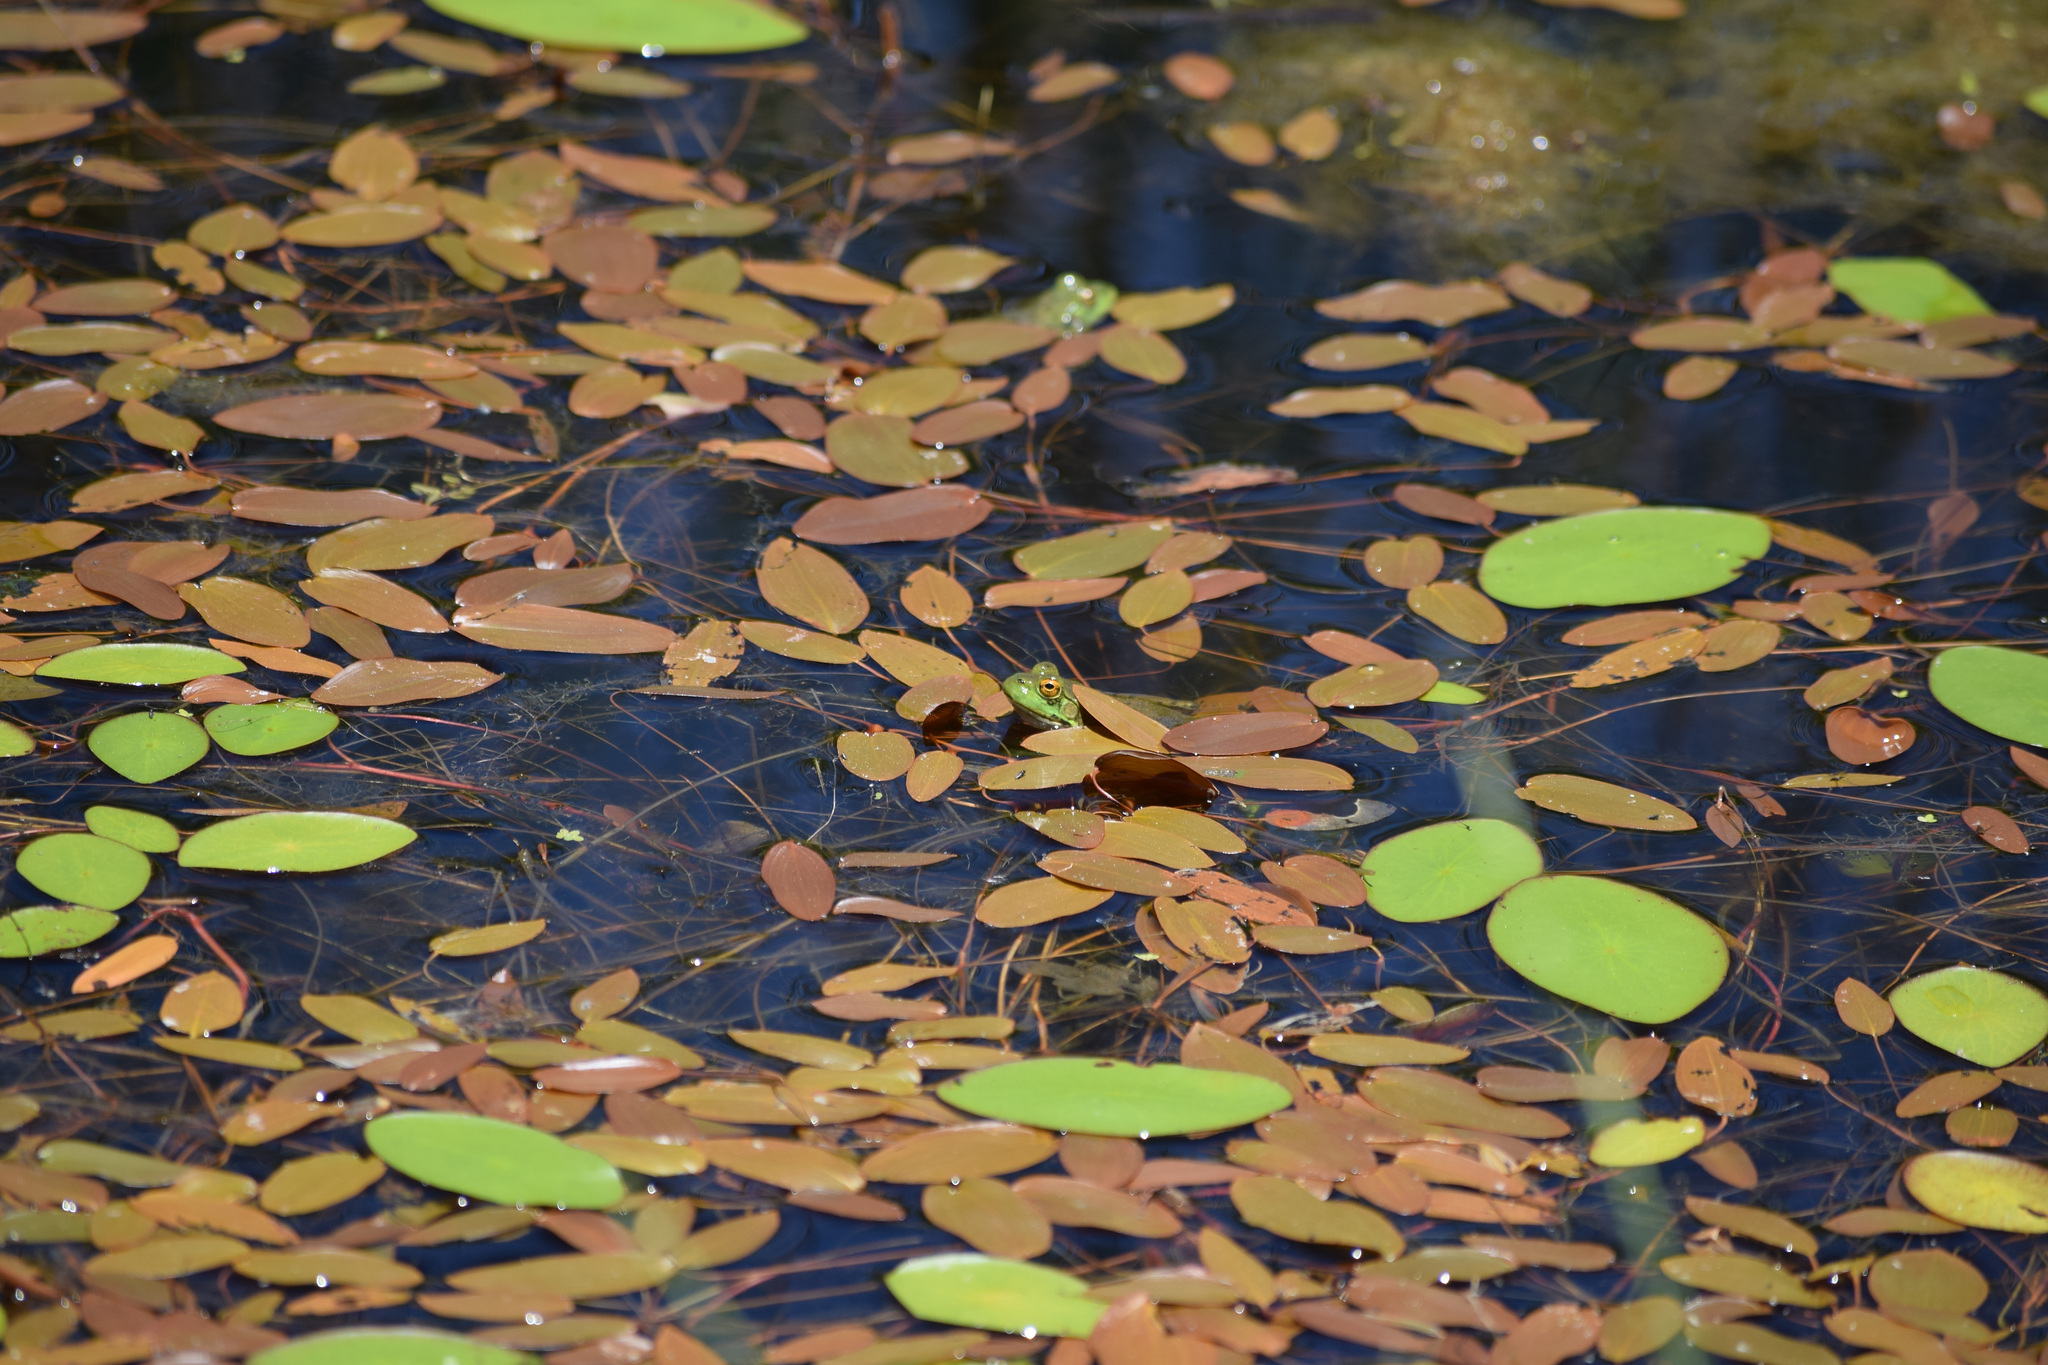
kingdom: Animalia
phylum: Chordata
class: Amphibia
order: Anura
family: Ranidae
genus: Lithobates
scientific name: Lithobates catesbeianus
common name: American bullfrog
